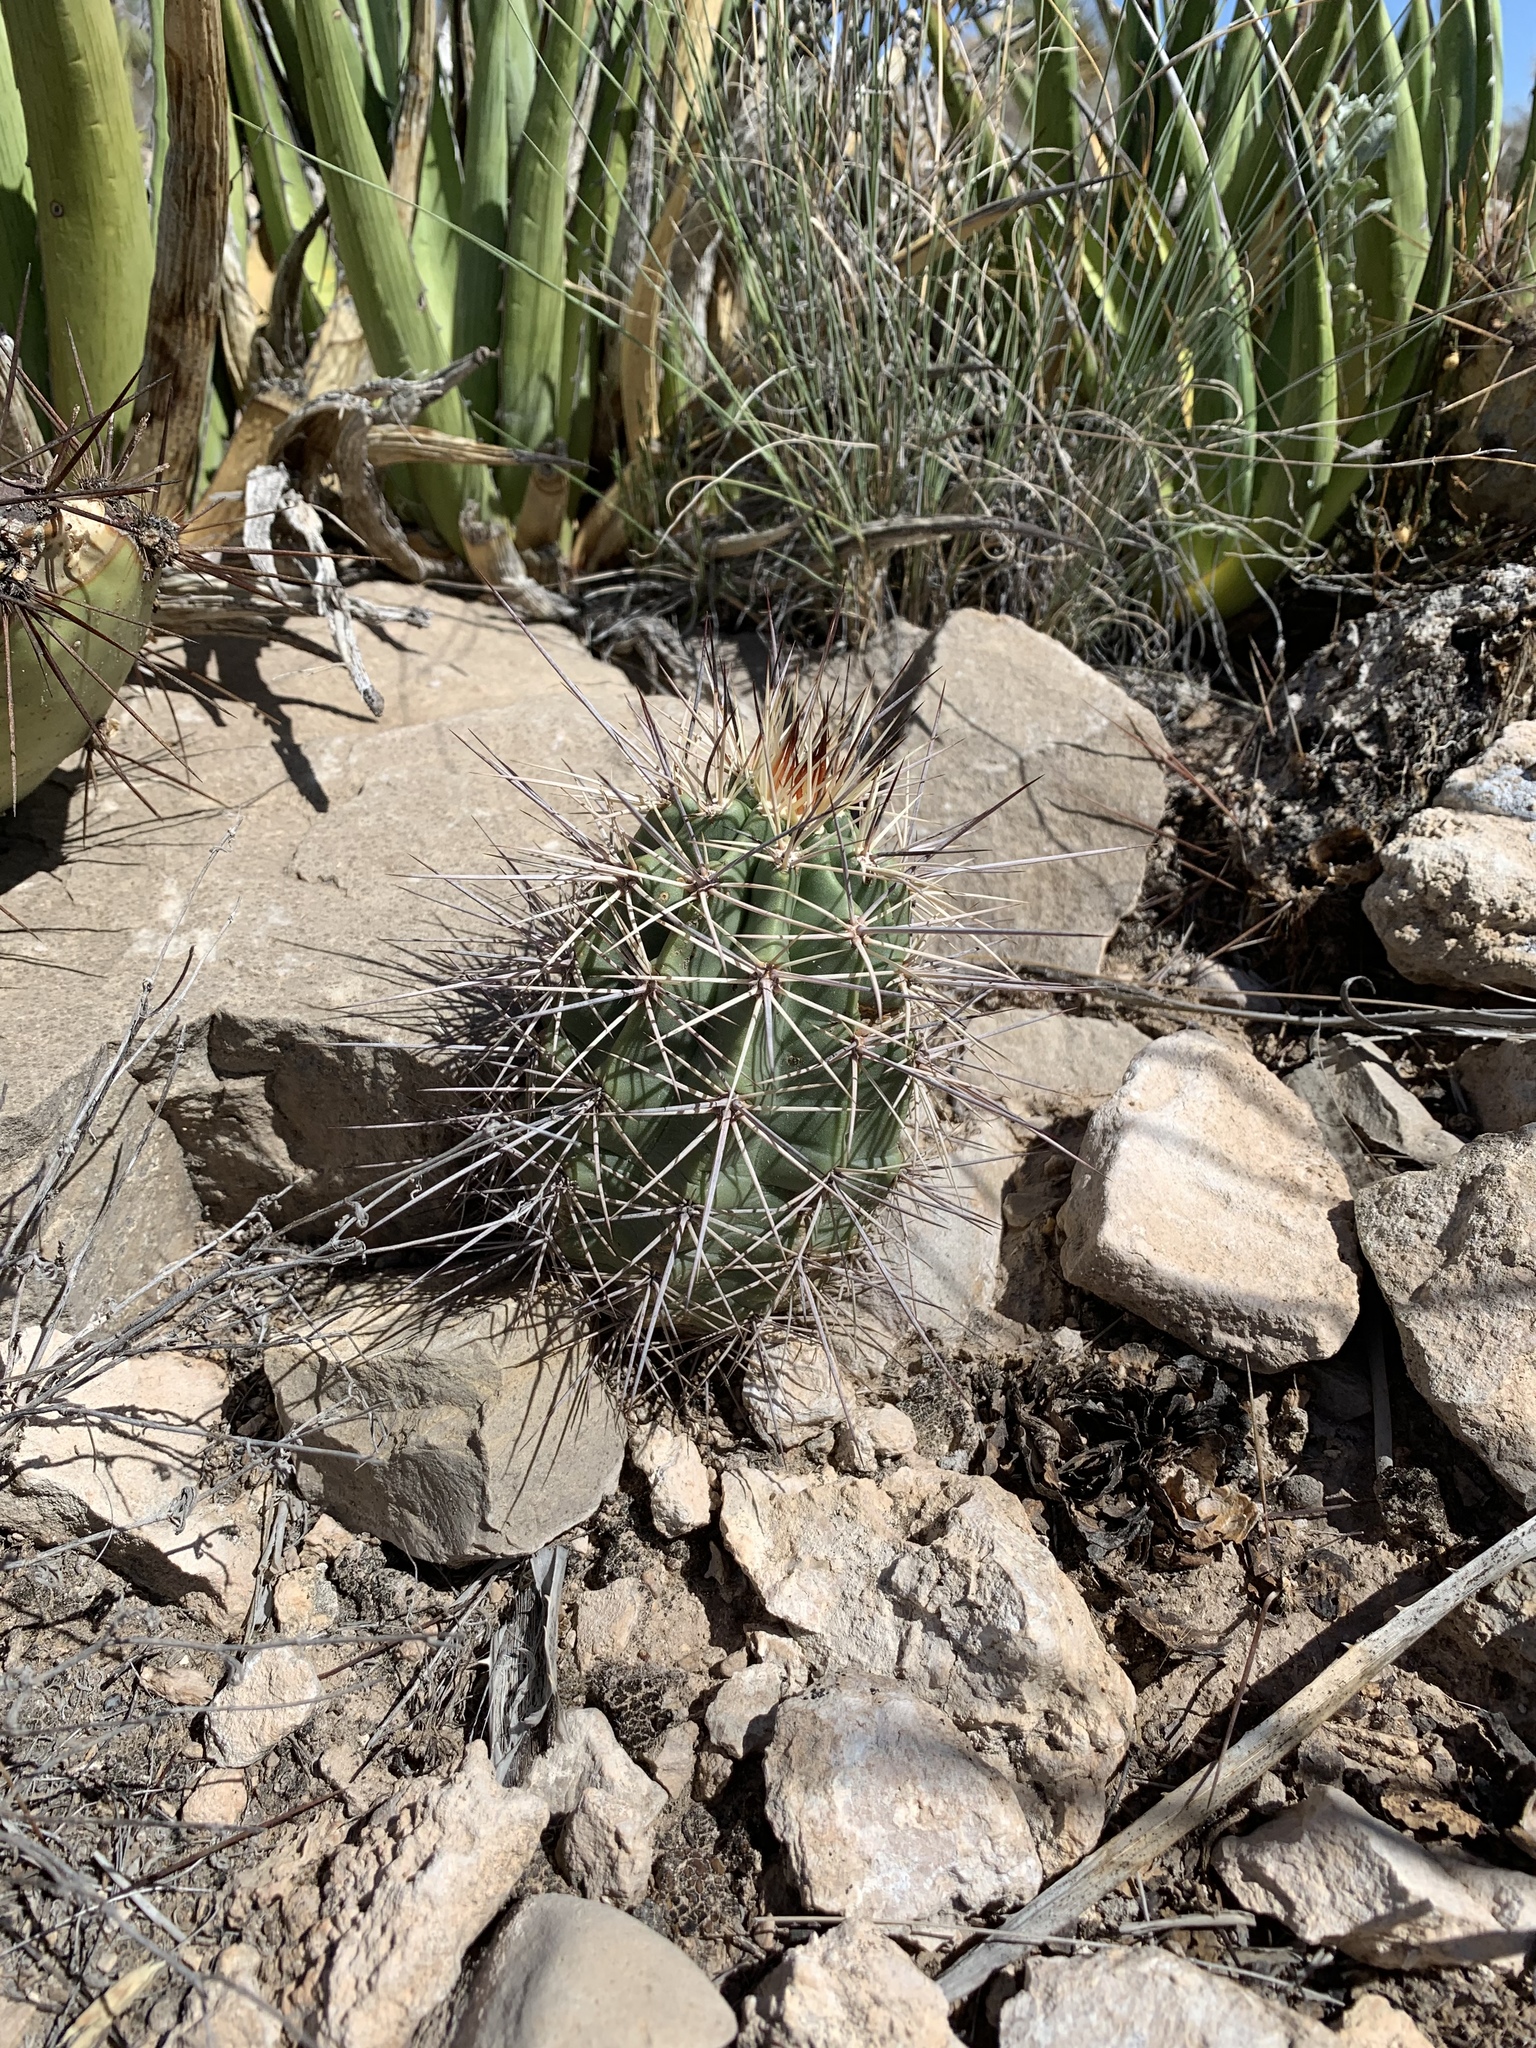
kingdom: Plantae
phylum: Tracheophyta
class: Magnoliopsida
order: Caryophyllales
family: Cactaceae
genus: Echinocereus
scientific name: Echinocereus coccineus
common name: Scarlet hedgehog cactus
